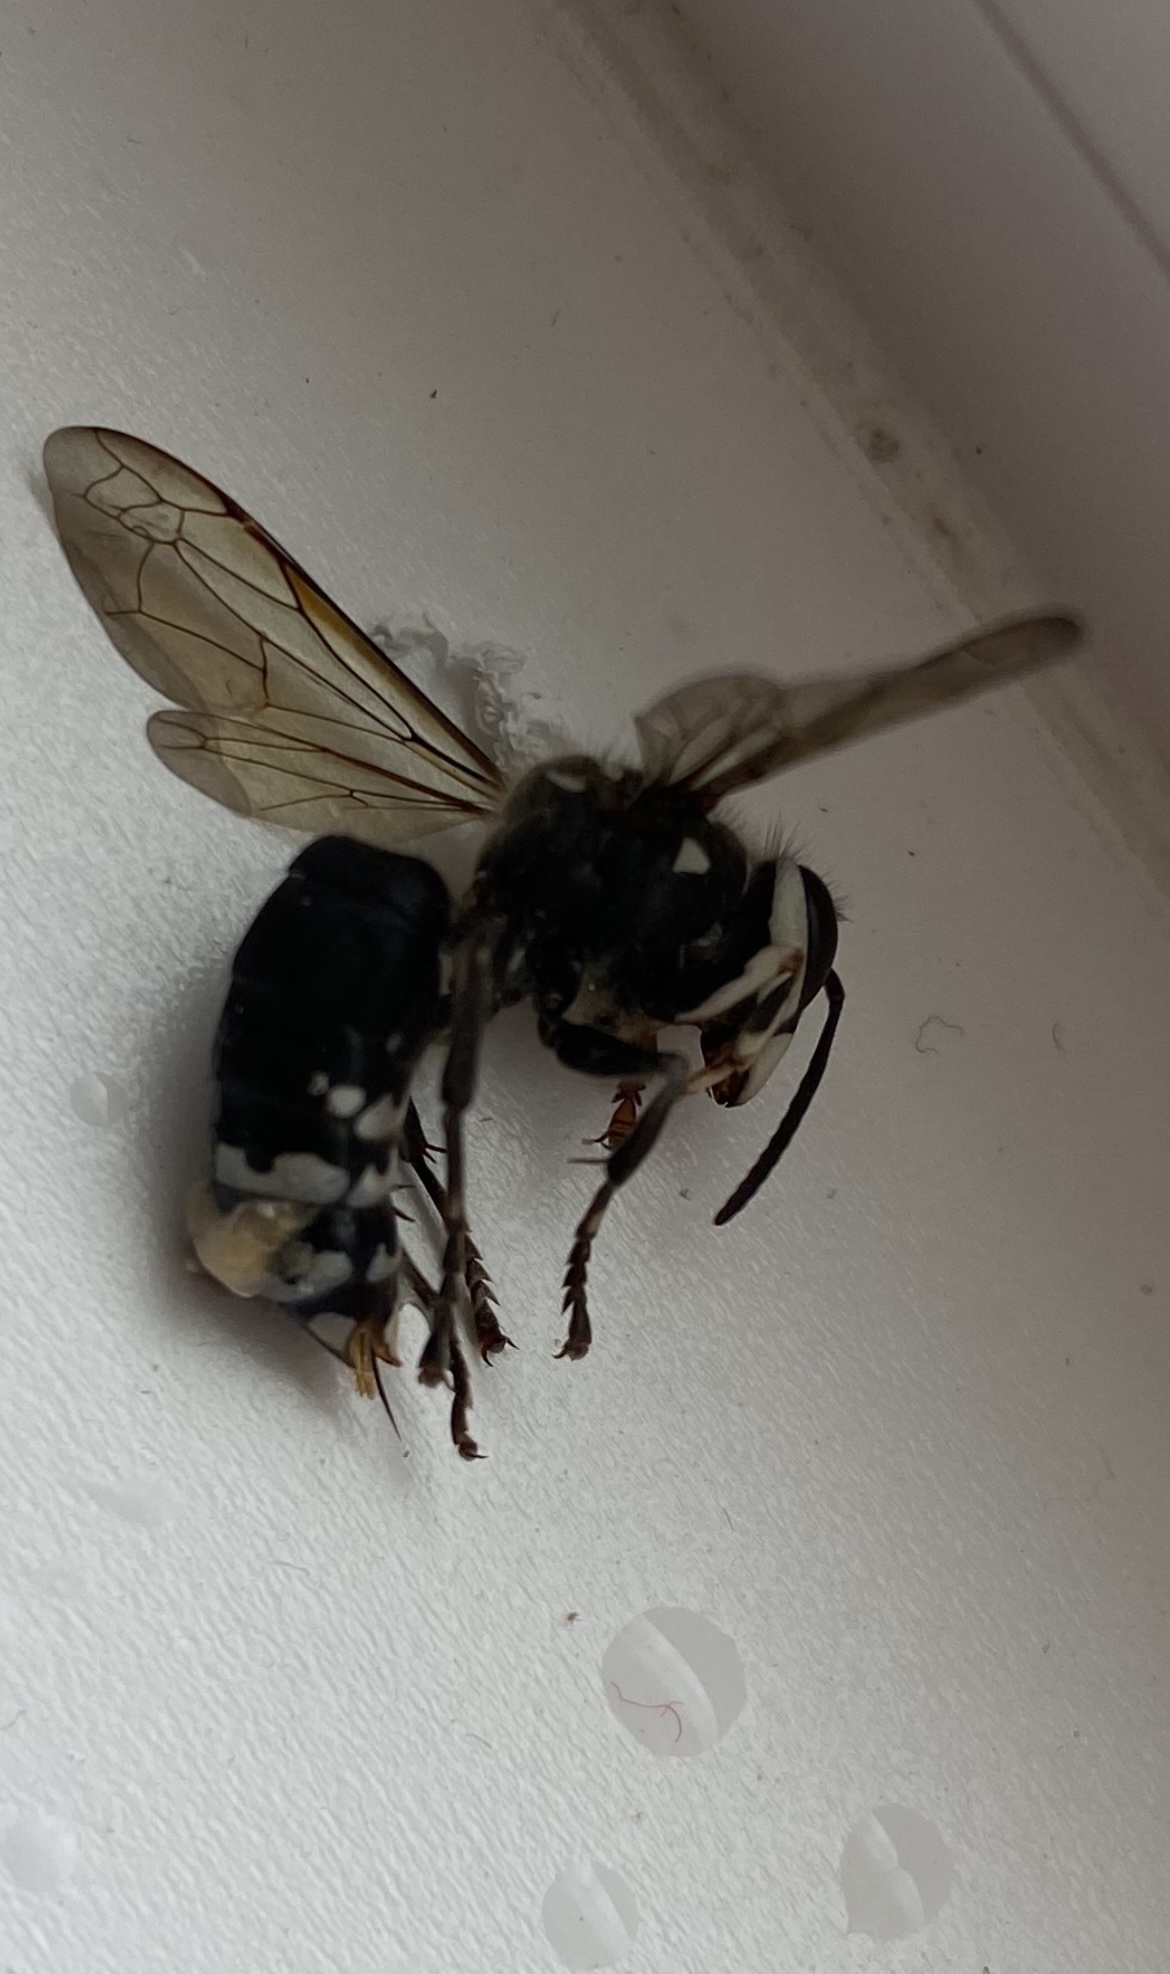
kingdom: Animalia
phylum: Arthropoda
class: Insecta
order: Hymenoptera
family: Vespidae
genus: Dolichovespula
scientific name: Dolichovespula maculata
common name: Bald-faced hornet
